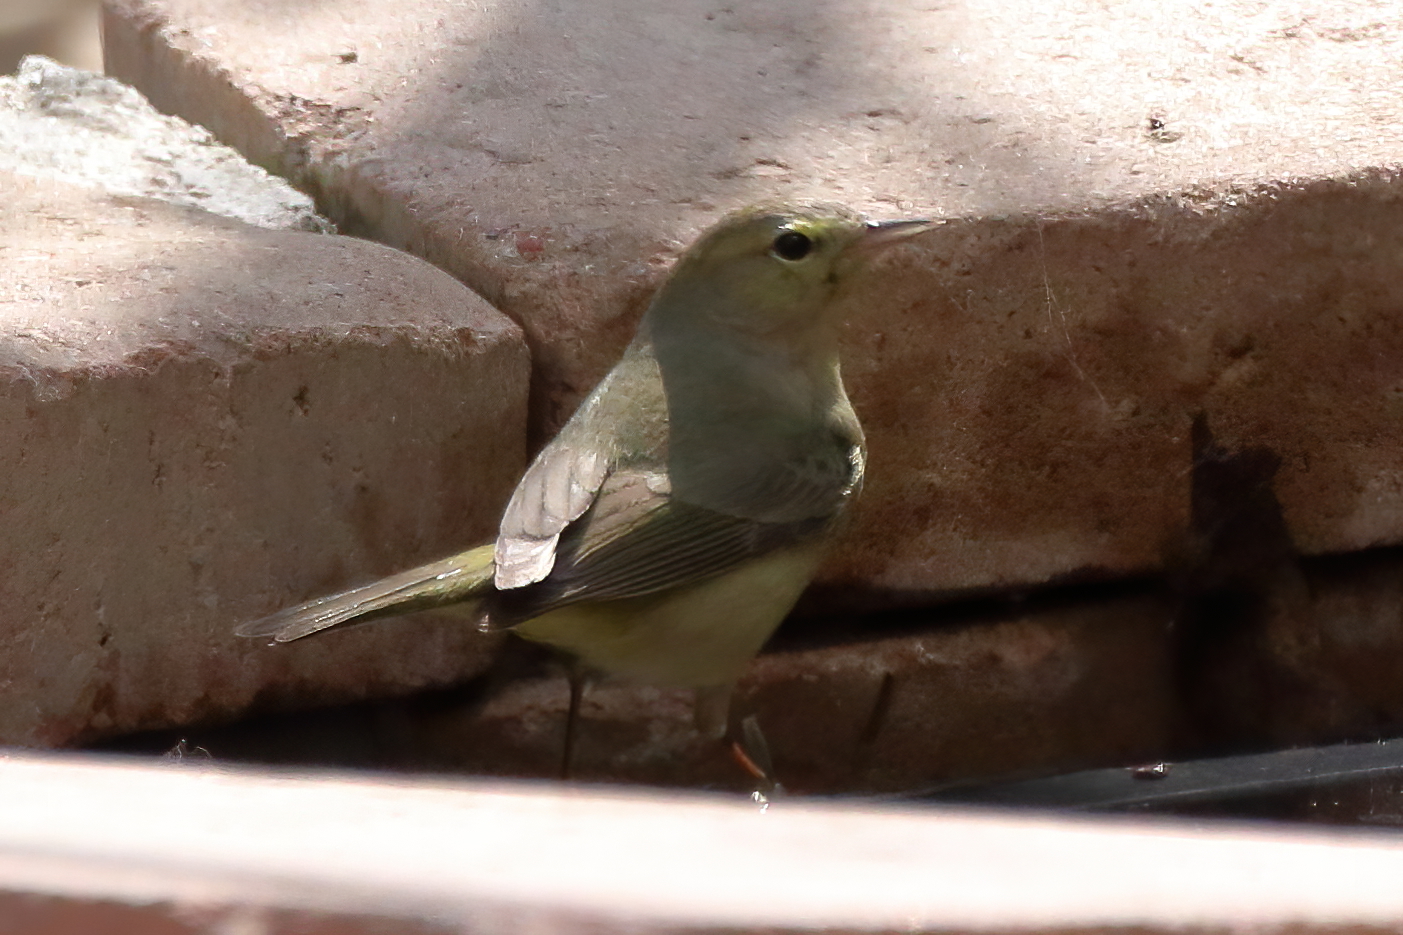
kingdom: Animalia
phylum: Chordata
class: Aves
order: Passeriformes
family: Parulidae
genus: Leiothlypis
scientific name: Leiothlypis celata
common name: Orange-crowned warbler
